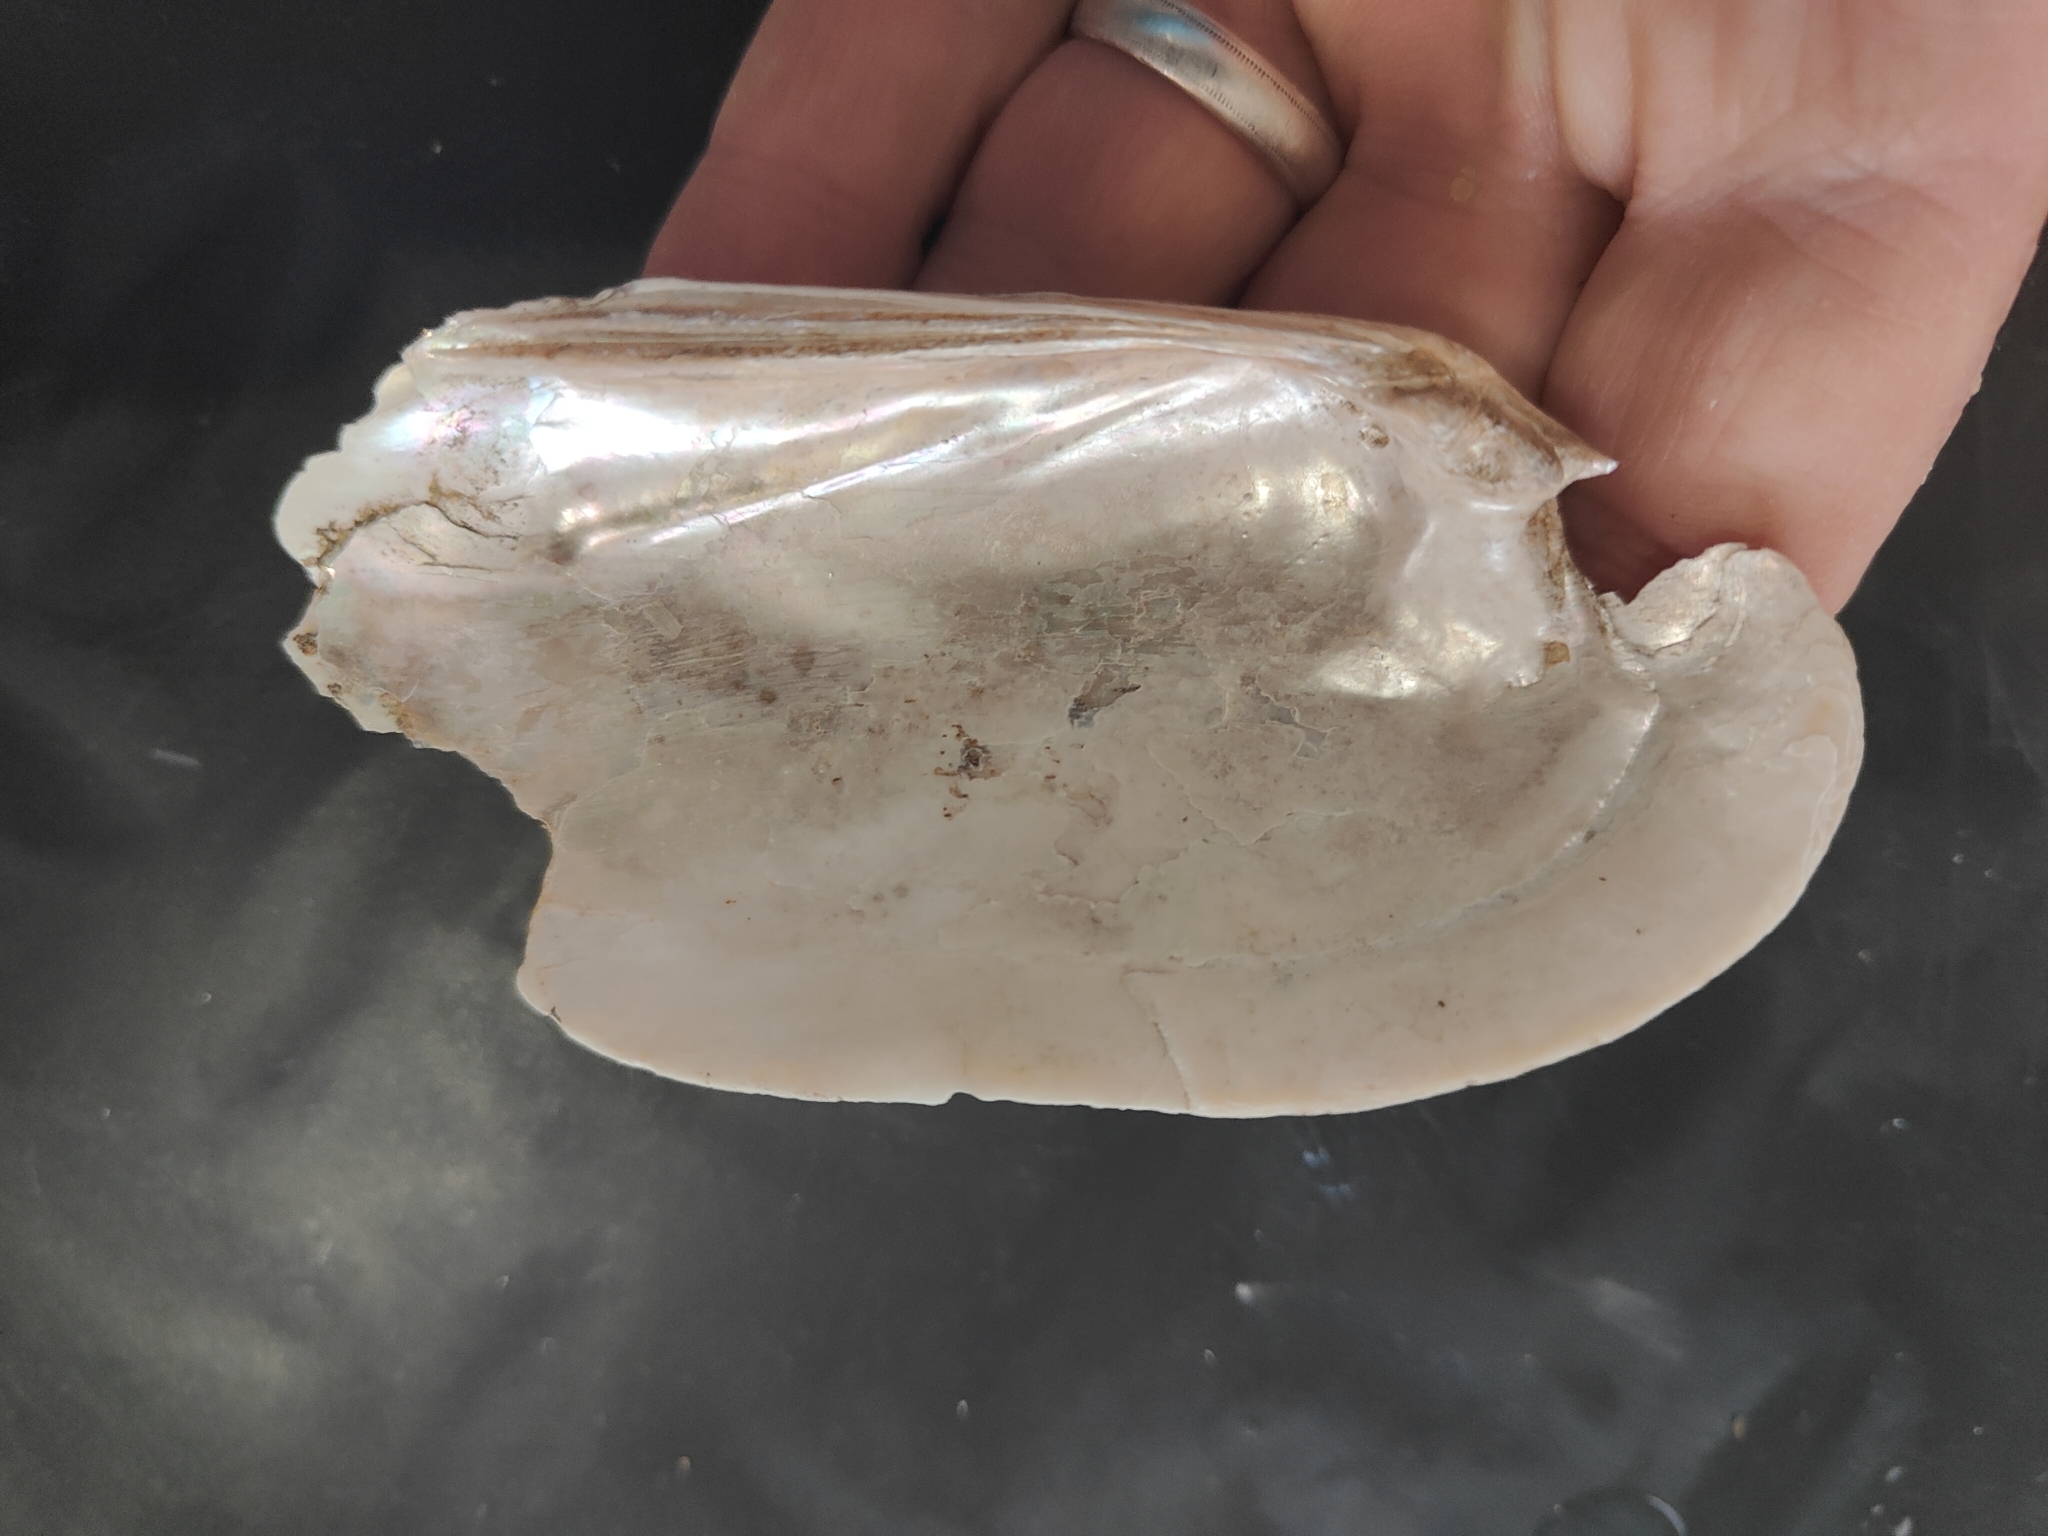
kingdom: Animalia
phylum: Mollusca
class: Bivalvia
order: Unionida
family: Unionidae
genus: Ligumia
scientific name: Ligumia recta
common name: Black sandshell
